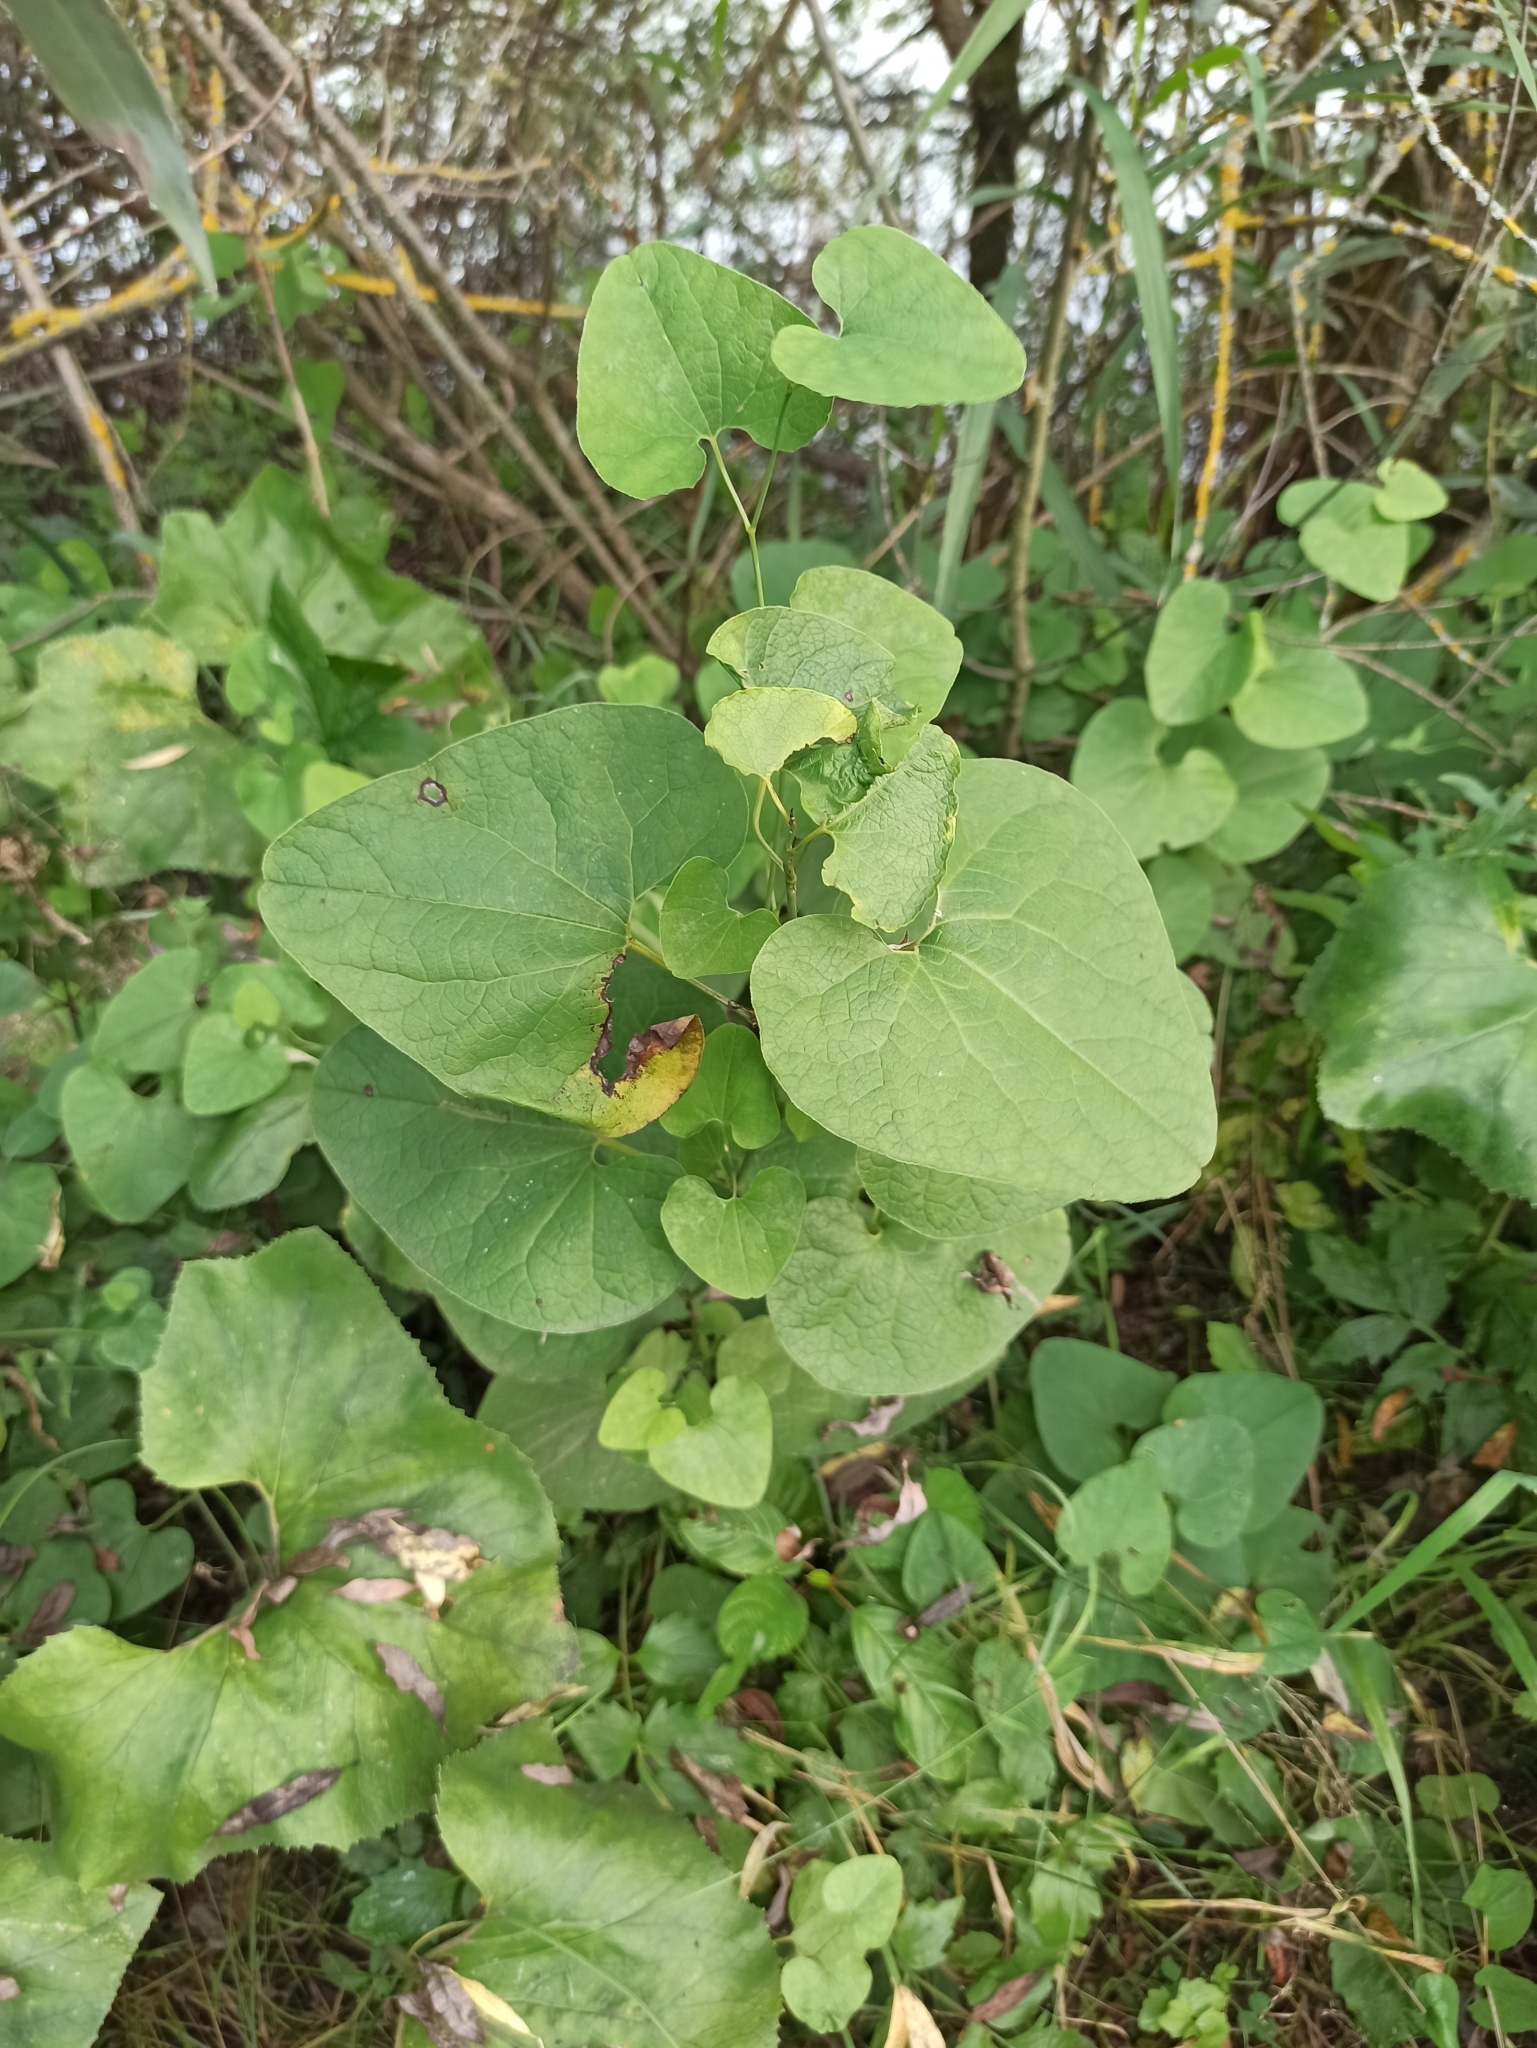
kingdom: Plantae
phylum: Tracheophyta
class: Magnoliopsida
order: Piperales
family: Aristolochiaceae
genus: Aristolochia
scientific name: Aristolochia clematitis
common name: Birthwort
